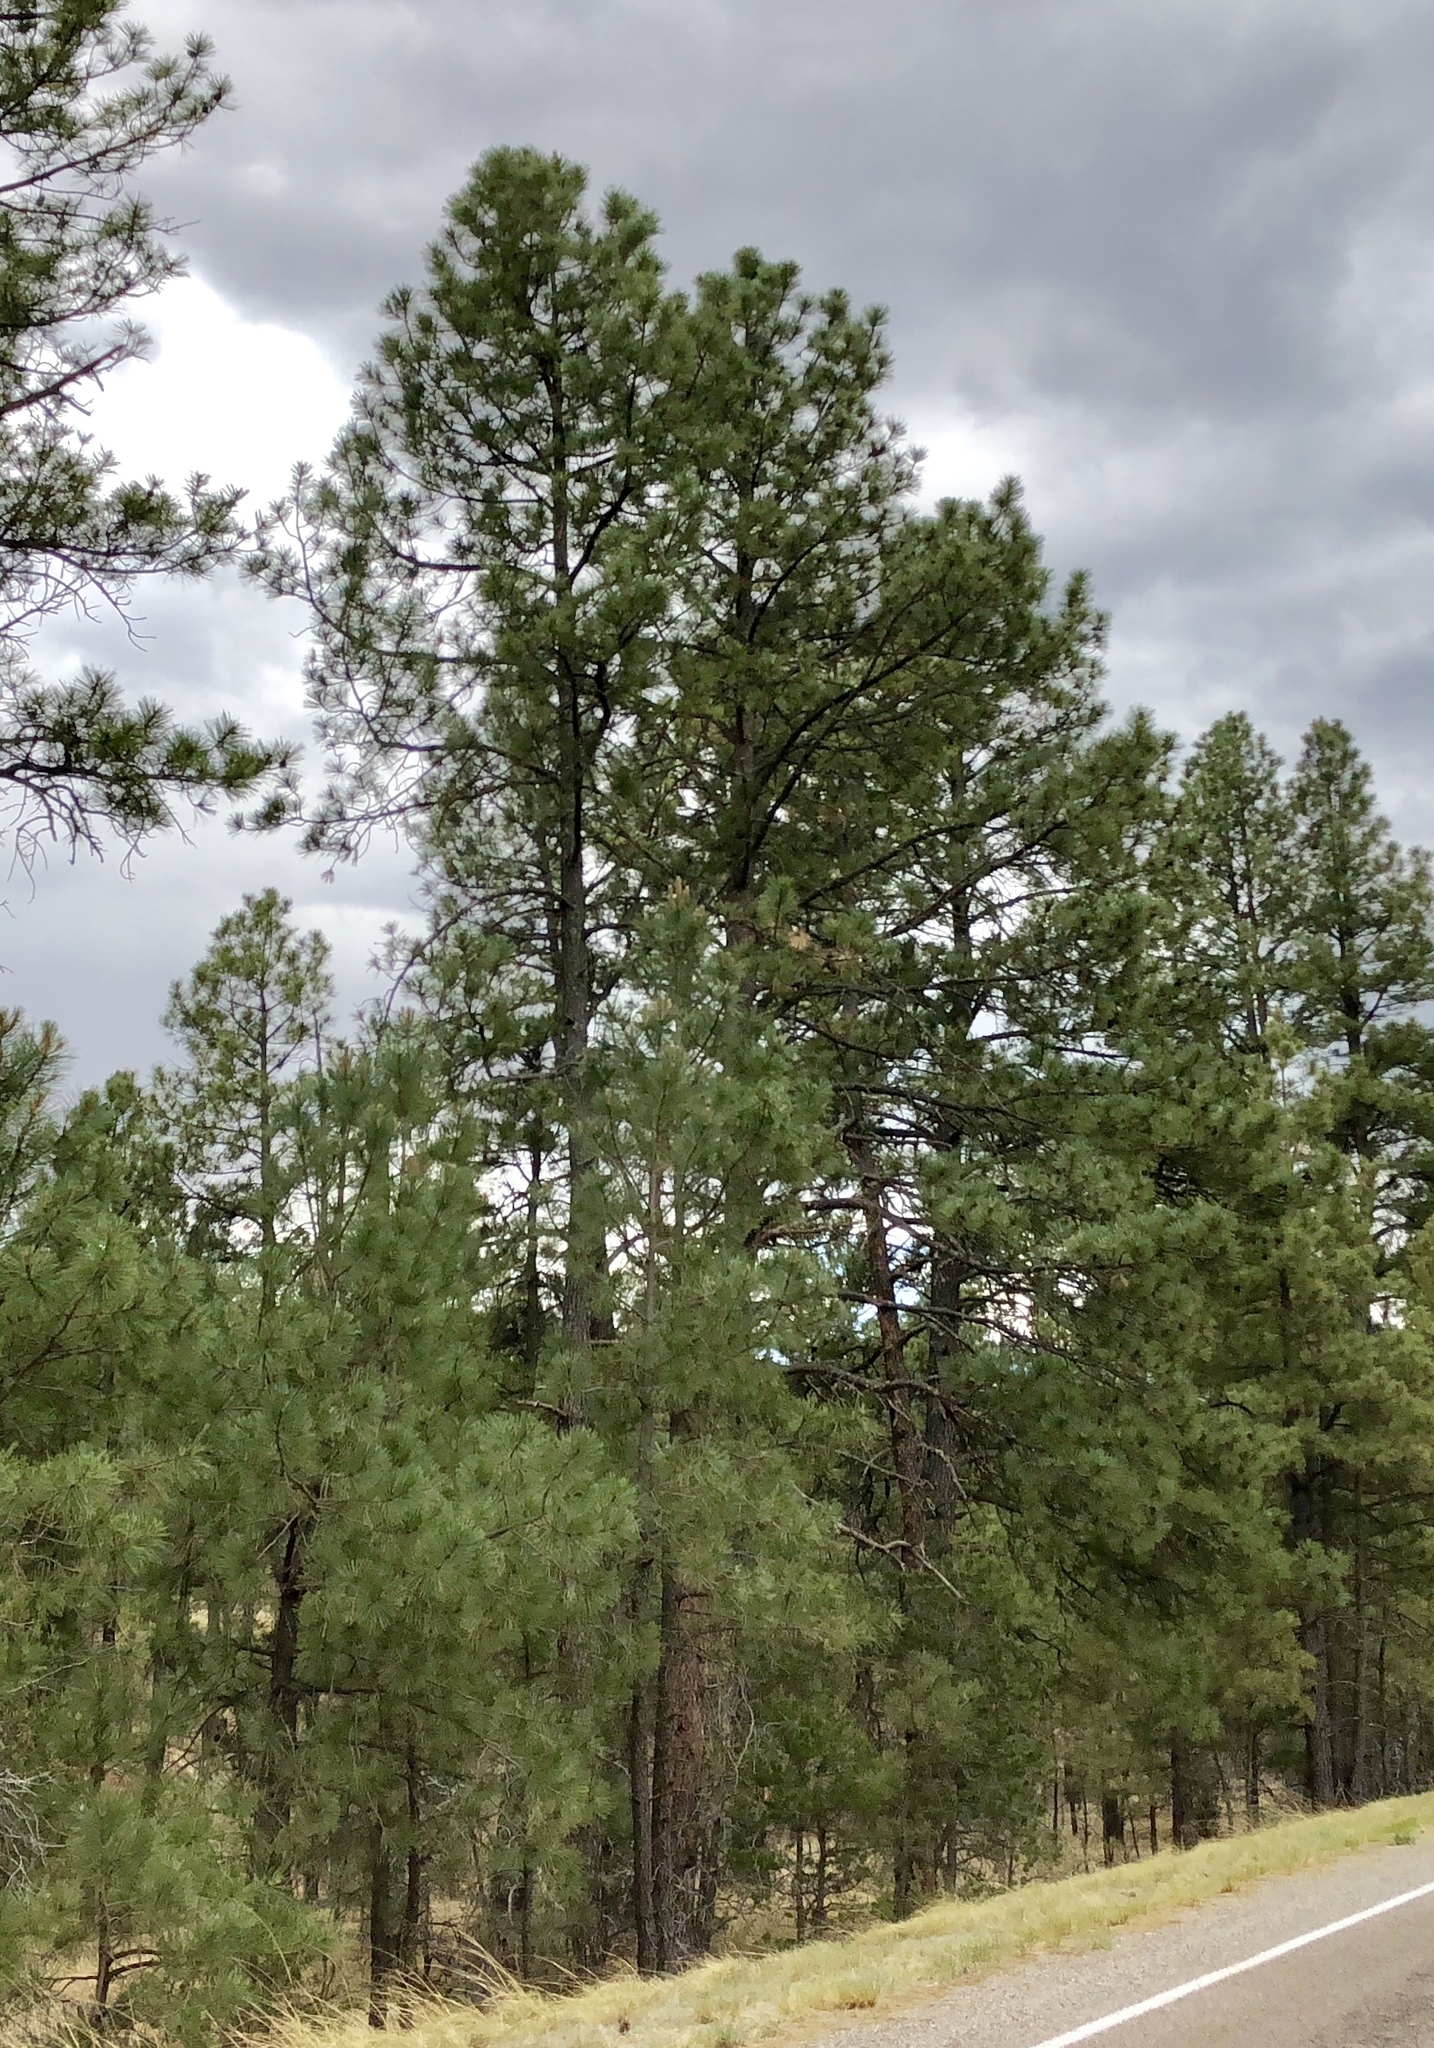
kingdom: Plantae
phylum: Tracheophyta
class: Pinopsida
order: Pinales
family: Pinaceae
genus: Pinus
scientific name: Pinus ponderosa
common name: Western yellow-pine
